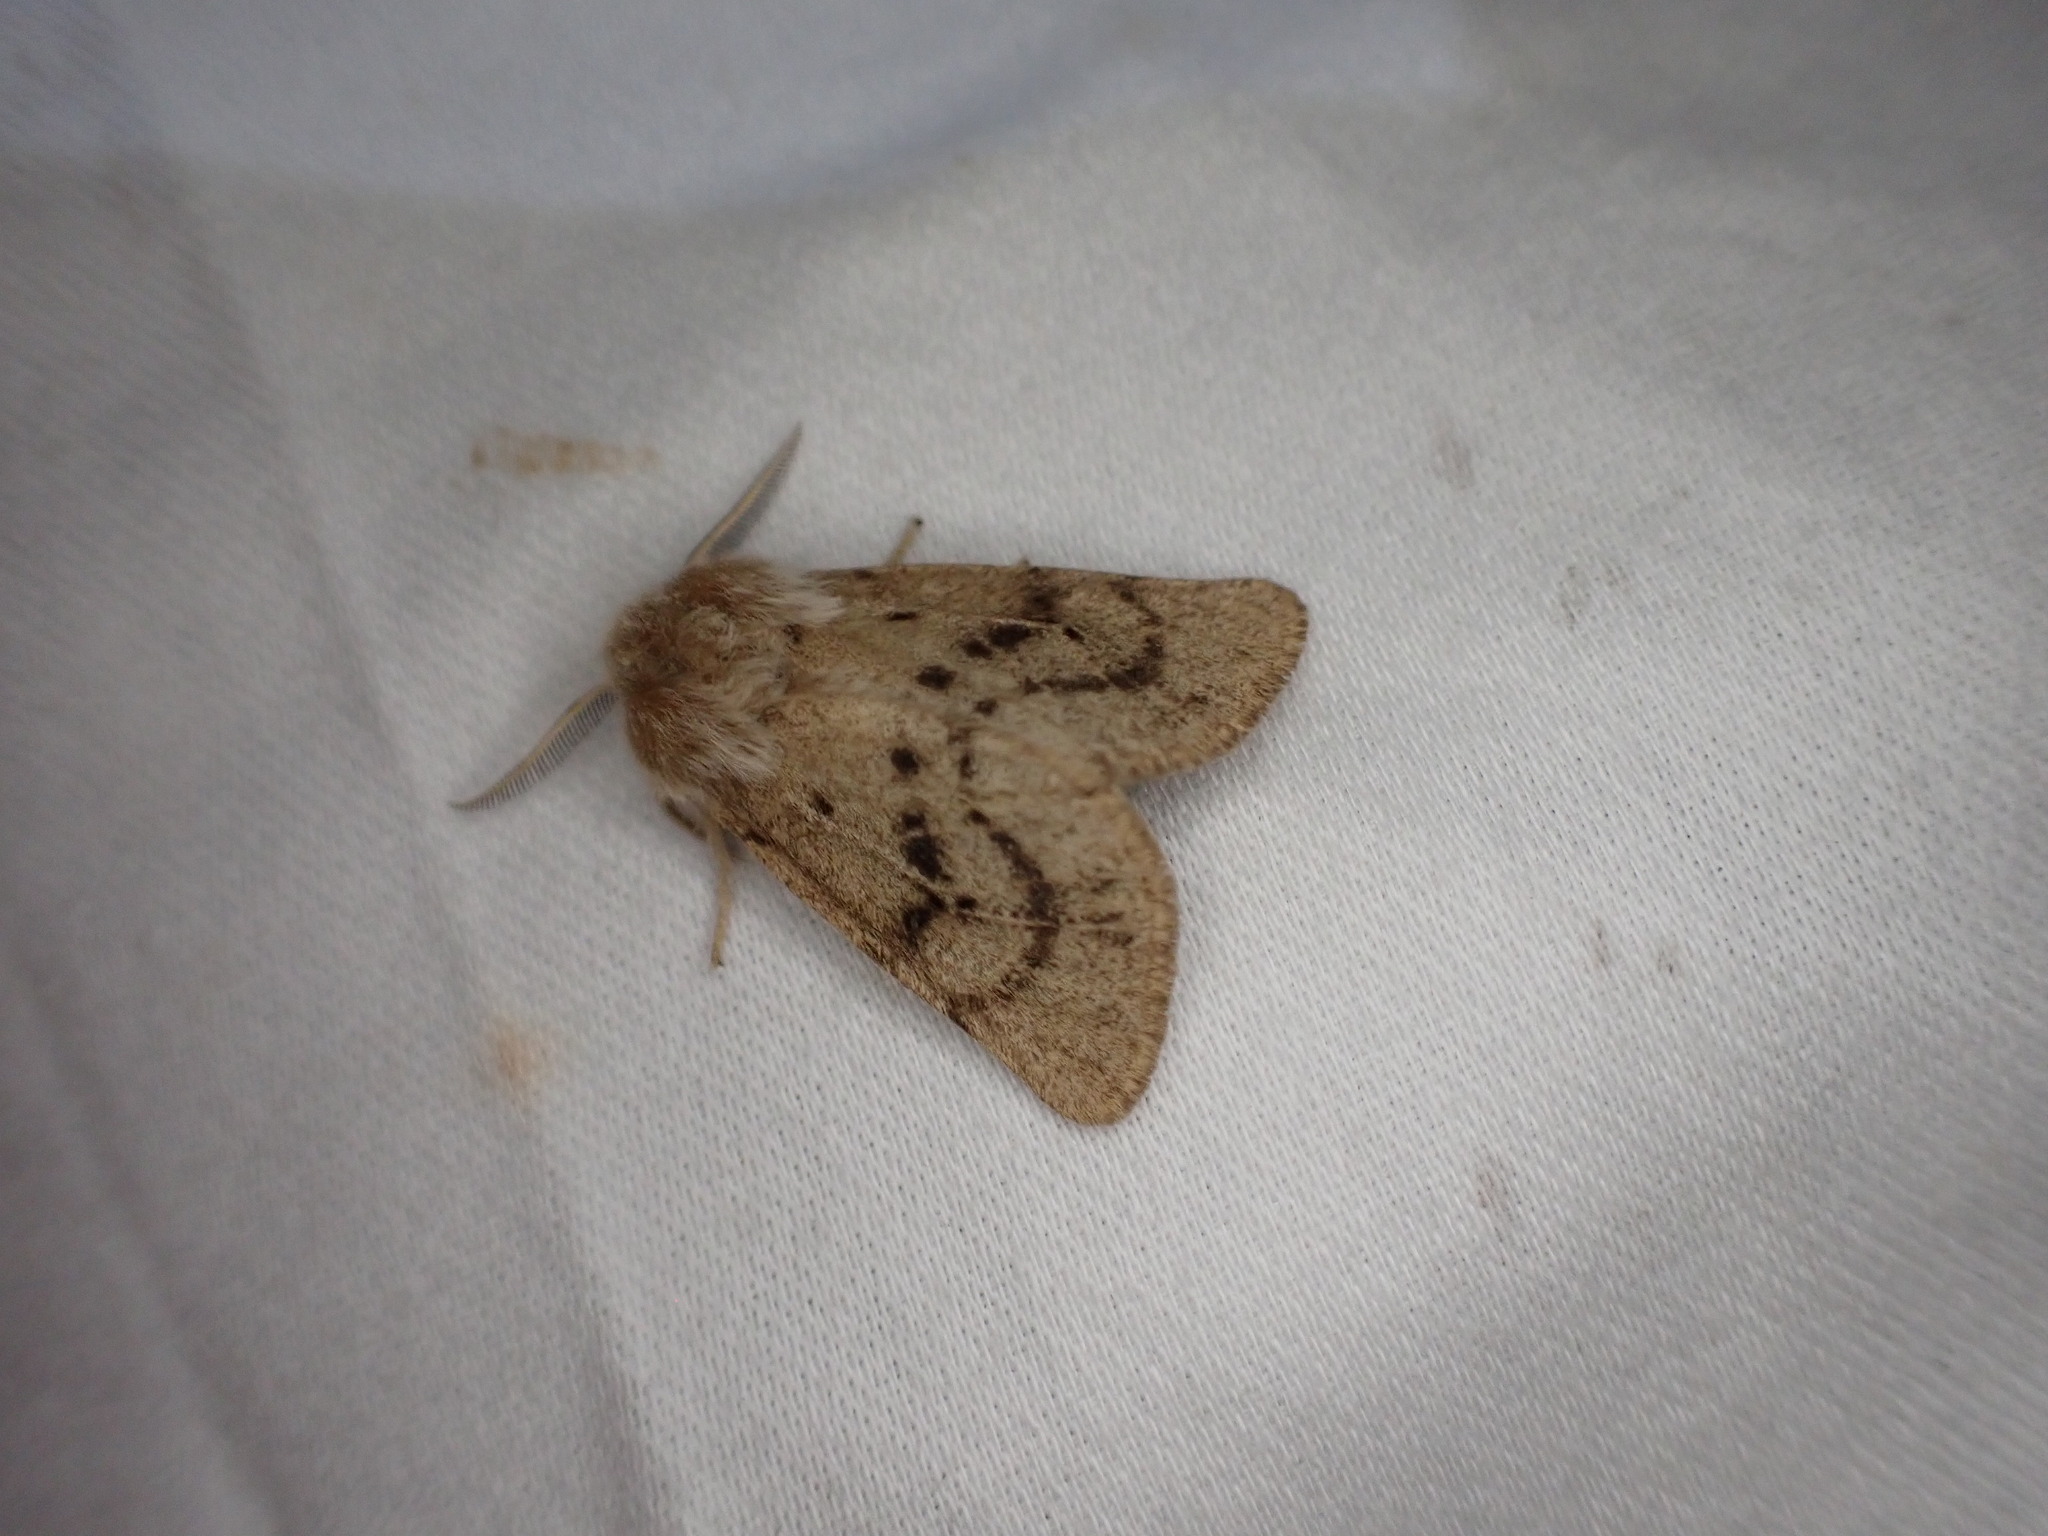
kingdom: Animalia
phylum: Arthropoda
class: Insecta
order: Lepidoptera
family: Erebidae
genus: Spilosoma
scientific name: Spilosoma vagans
